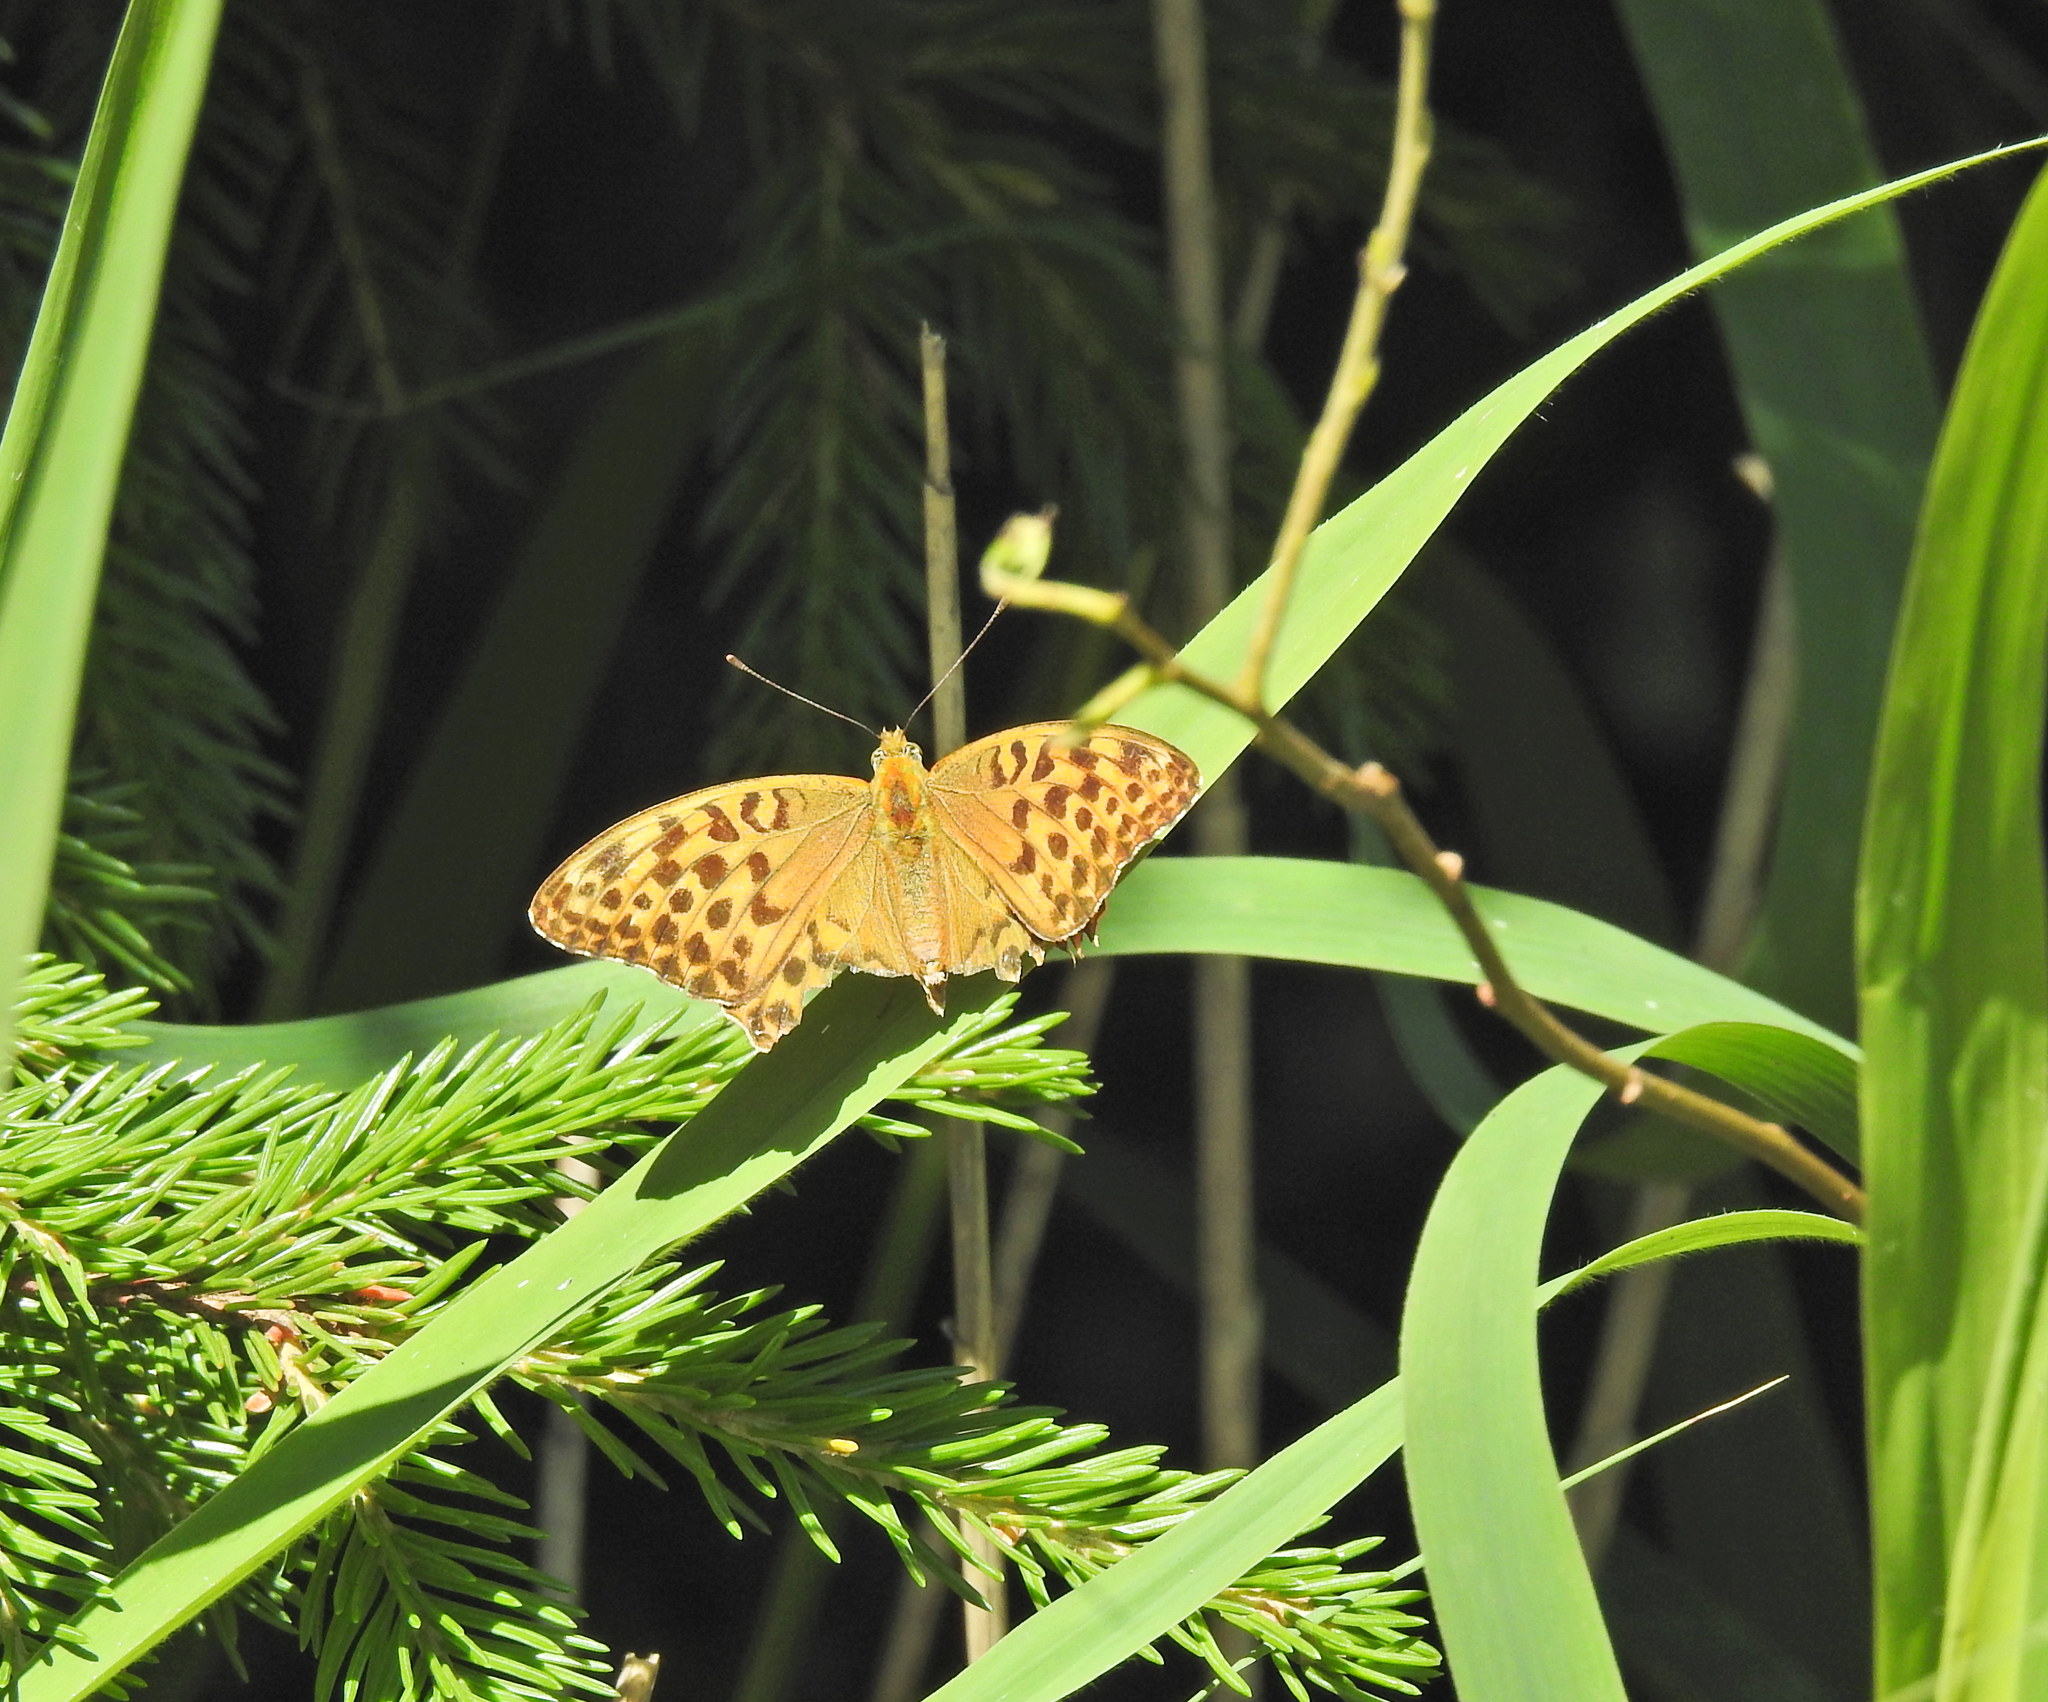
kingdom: Animalia
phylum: Arthropoda
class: Insecta
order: Lepidoptera
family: Nymphalidae
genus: Argynnis
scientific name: Argynnis paphia
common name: Silver-washed fritillary
